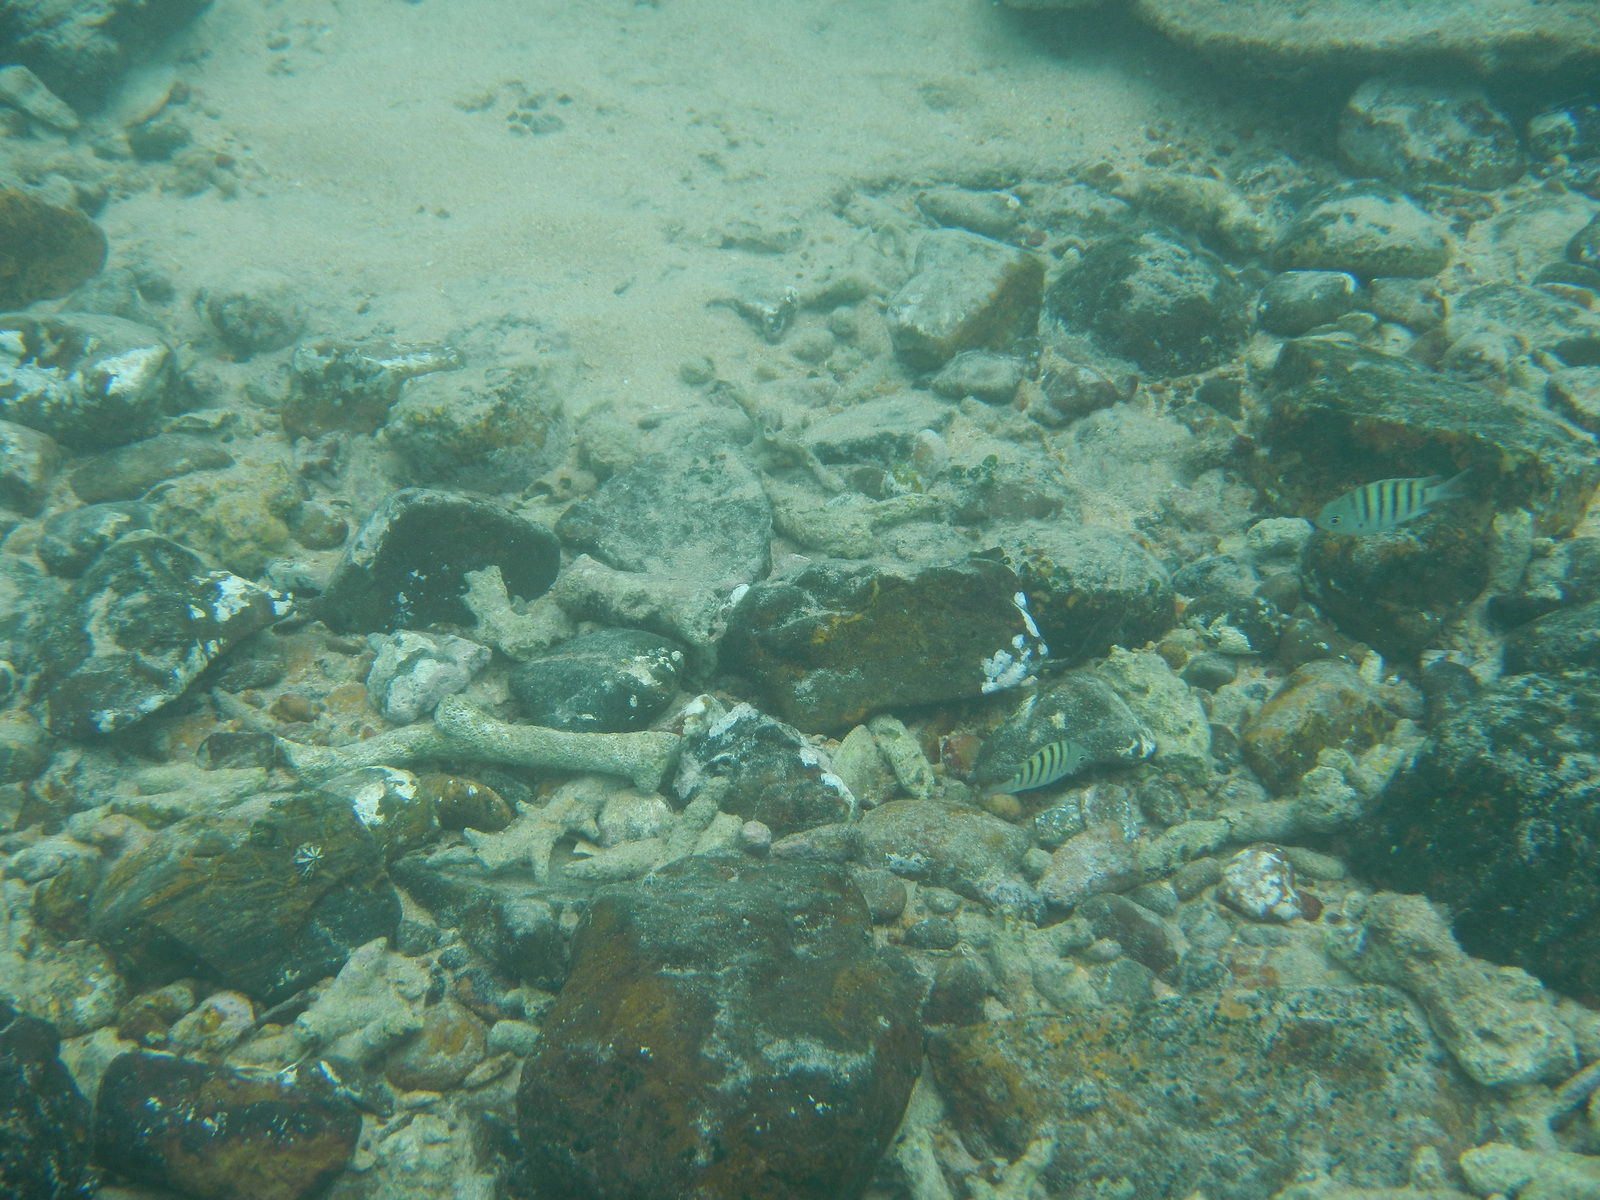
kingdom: Animalia
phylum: Chordata
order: Perciformes
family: Pomacentridae
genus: Abudefduf
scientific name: Abudefduf bengalensis
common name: Bengal sergeant
